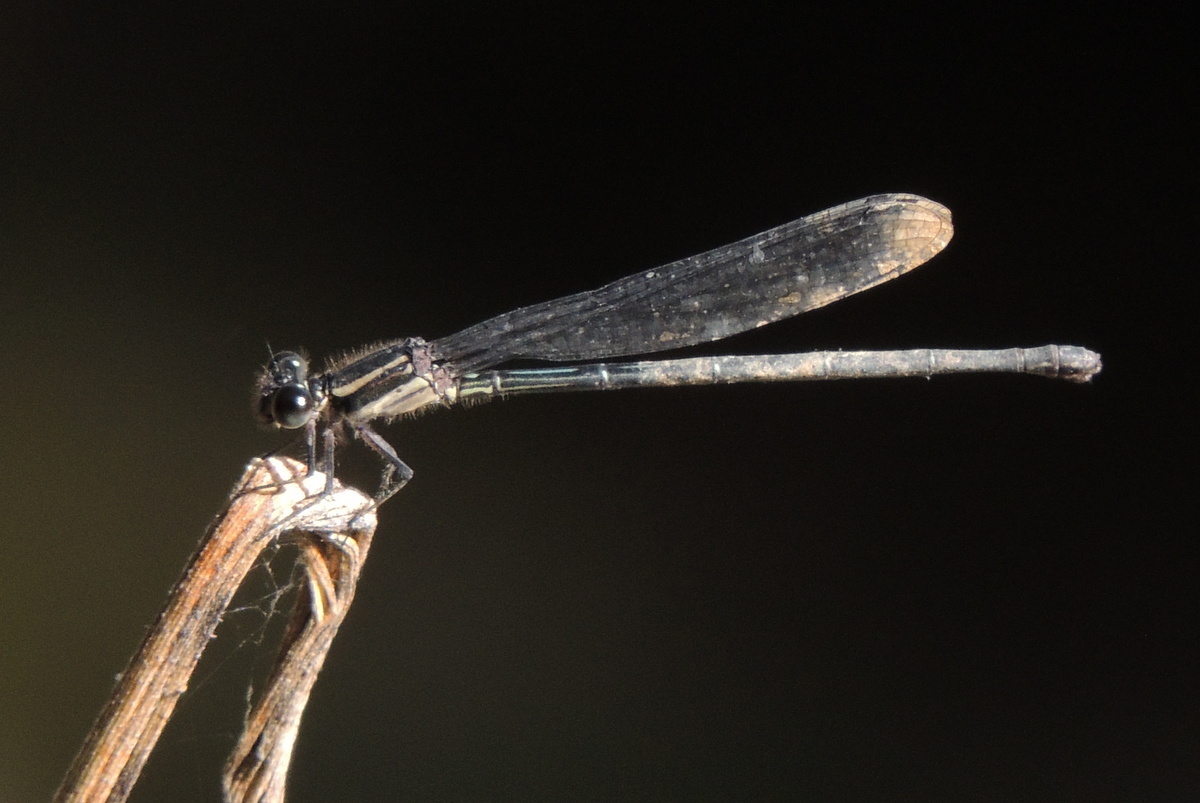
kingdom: Animalia
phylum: Arthropoda
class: Insecta
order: Odonata
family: Coenagrionidae
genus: Argia
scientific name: Argia translata
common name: Dusky dancer
